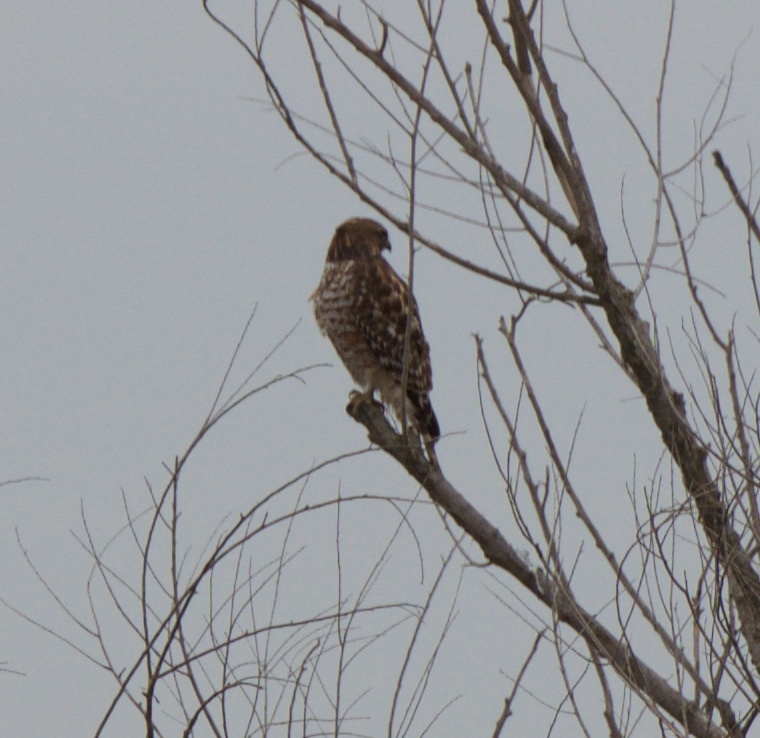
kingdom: Animalia
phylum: Chordata
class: Aves
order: Accipitriformes
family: Accipitridae
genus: Buteo
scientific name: Buteo lineatus
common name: Red-shouldered hawk
